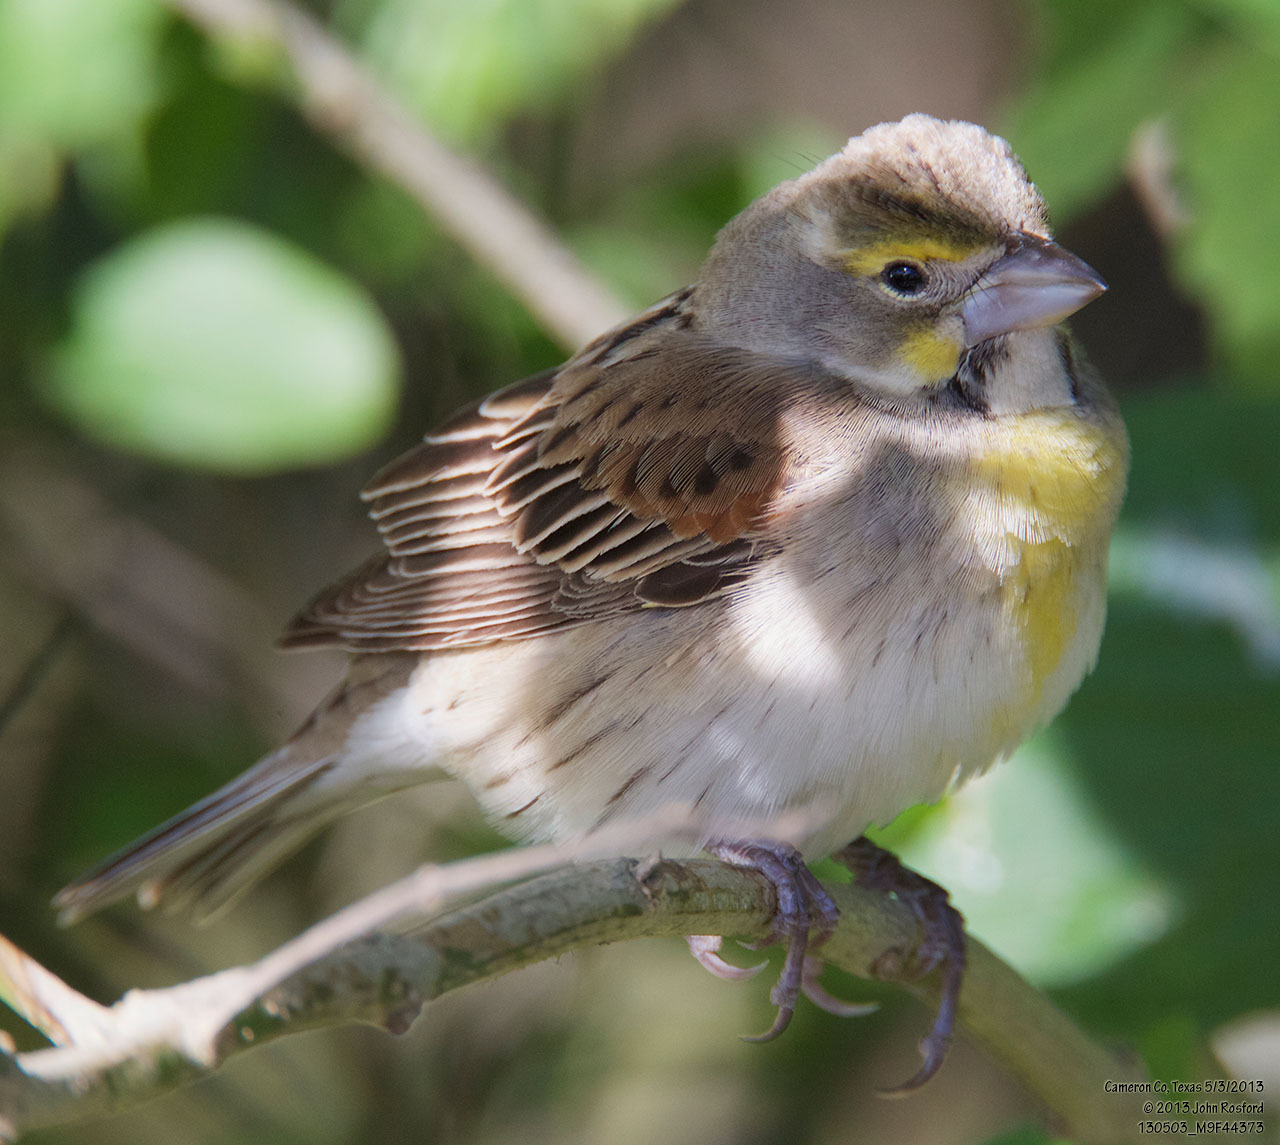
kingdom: Animalia
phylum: Chordata
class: Aves
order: Passeriformes
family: Cardinalidae
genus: Spiza
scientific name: Spiza americana
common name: Dickcissel
